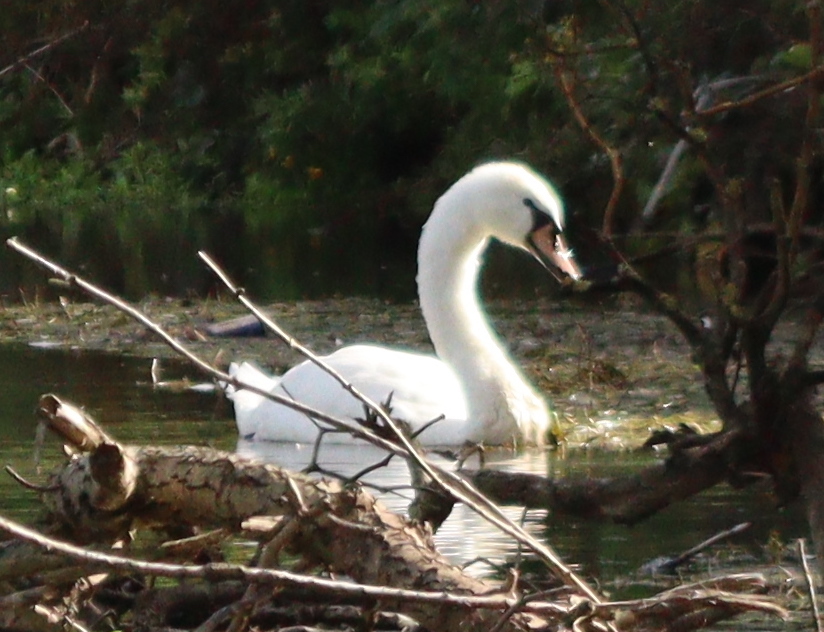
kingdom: Animalia
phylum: Chordata
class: Aves
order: Anseriformes
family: Anatidae
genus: Cygnus
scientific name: Cygnus olor
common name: Mute swan
